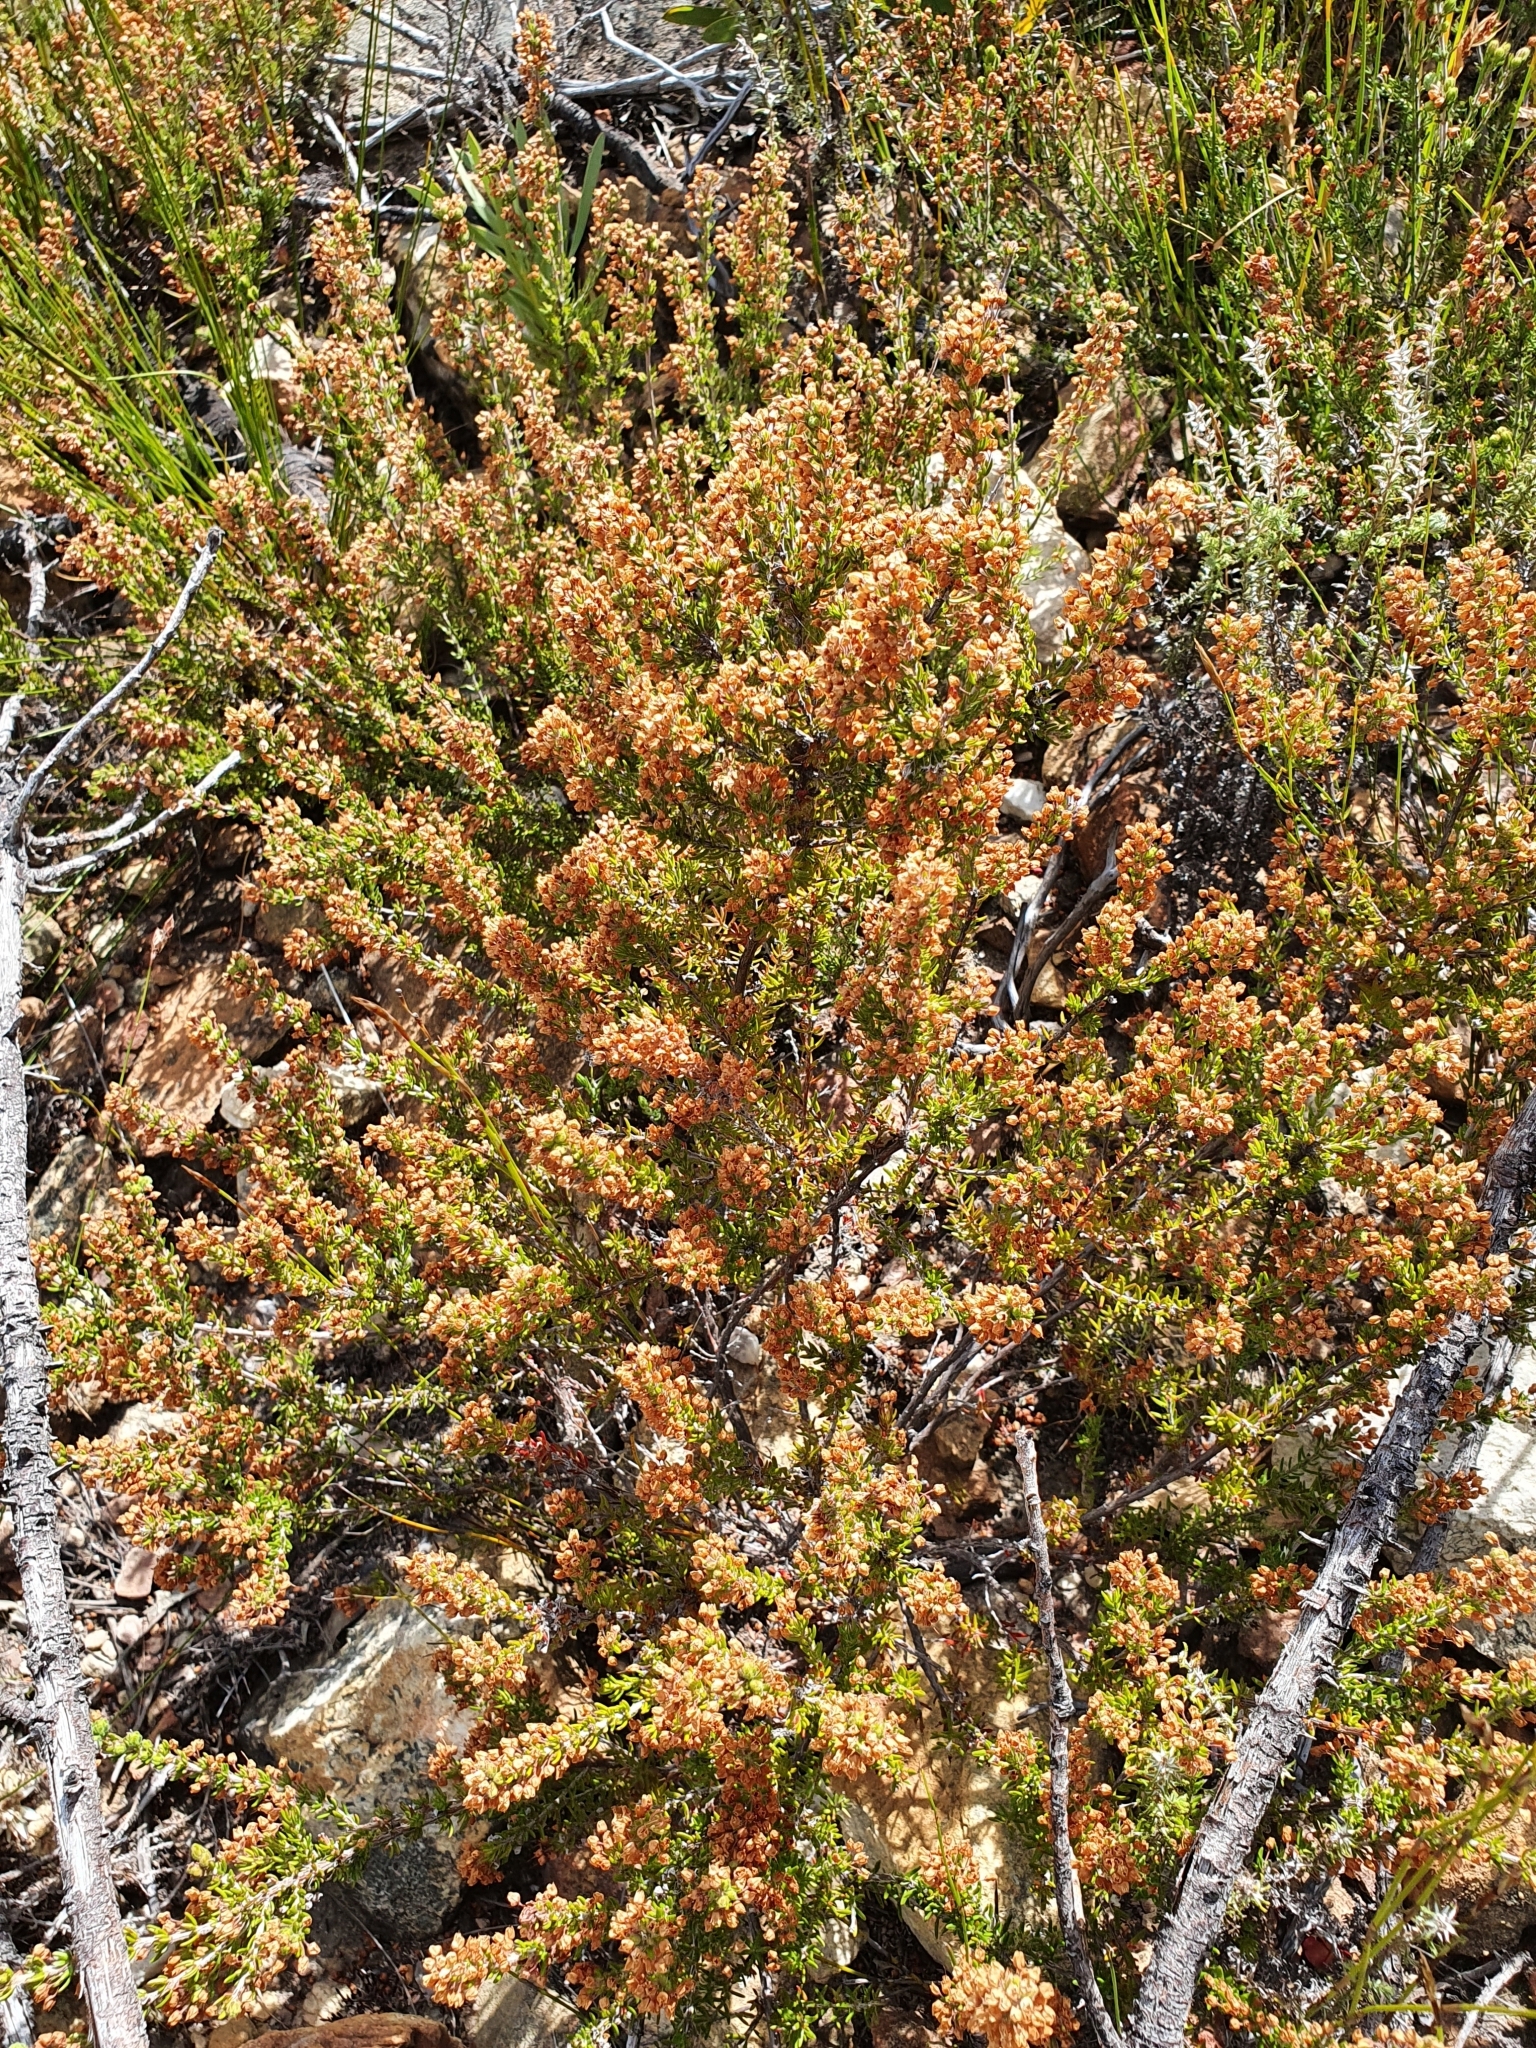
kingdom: Plantae
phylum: Tracheophyta
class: Magnoliopsida
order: Ericales
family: Ericaceae
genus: Erica
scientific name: Erica nudiflora
